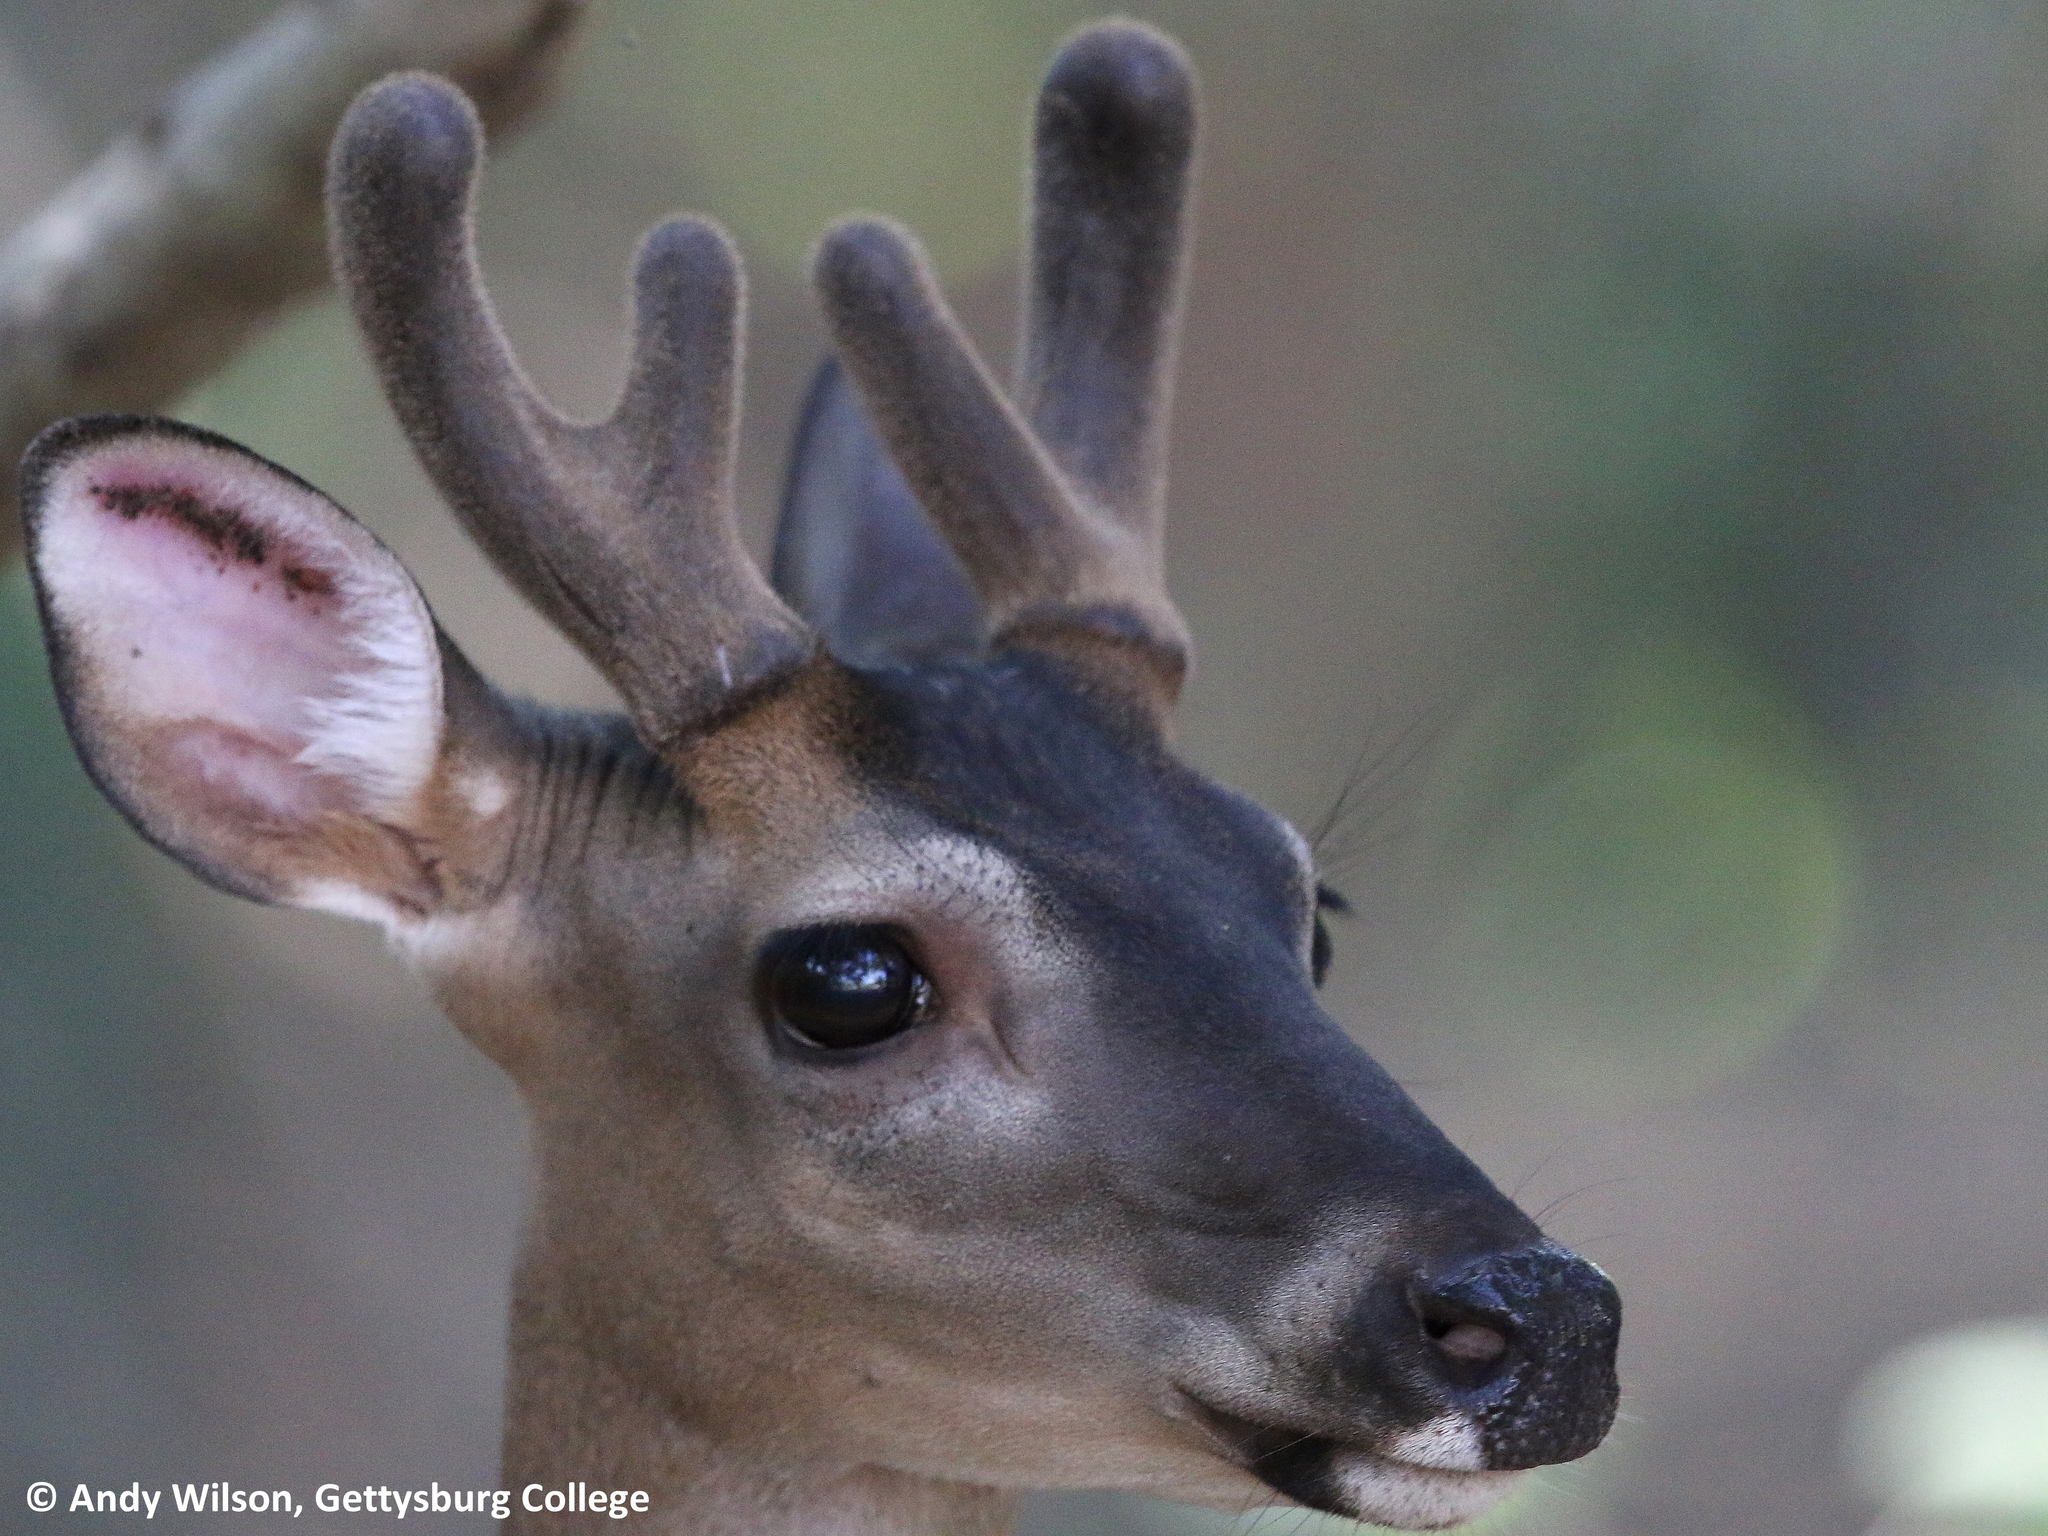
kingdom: Animalia
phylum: Chordata
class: Mammalia
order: Artiodactyla
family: Cervidae
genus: Odocoileus
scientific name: Odocoileus virginianus
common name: White-tailed deer
